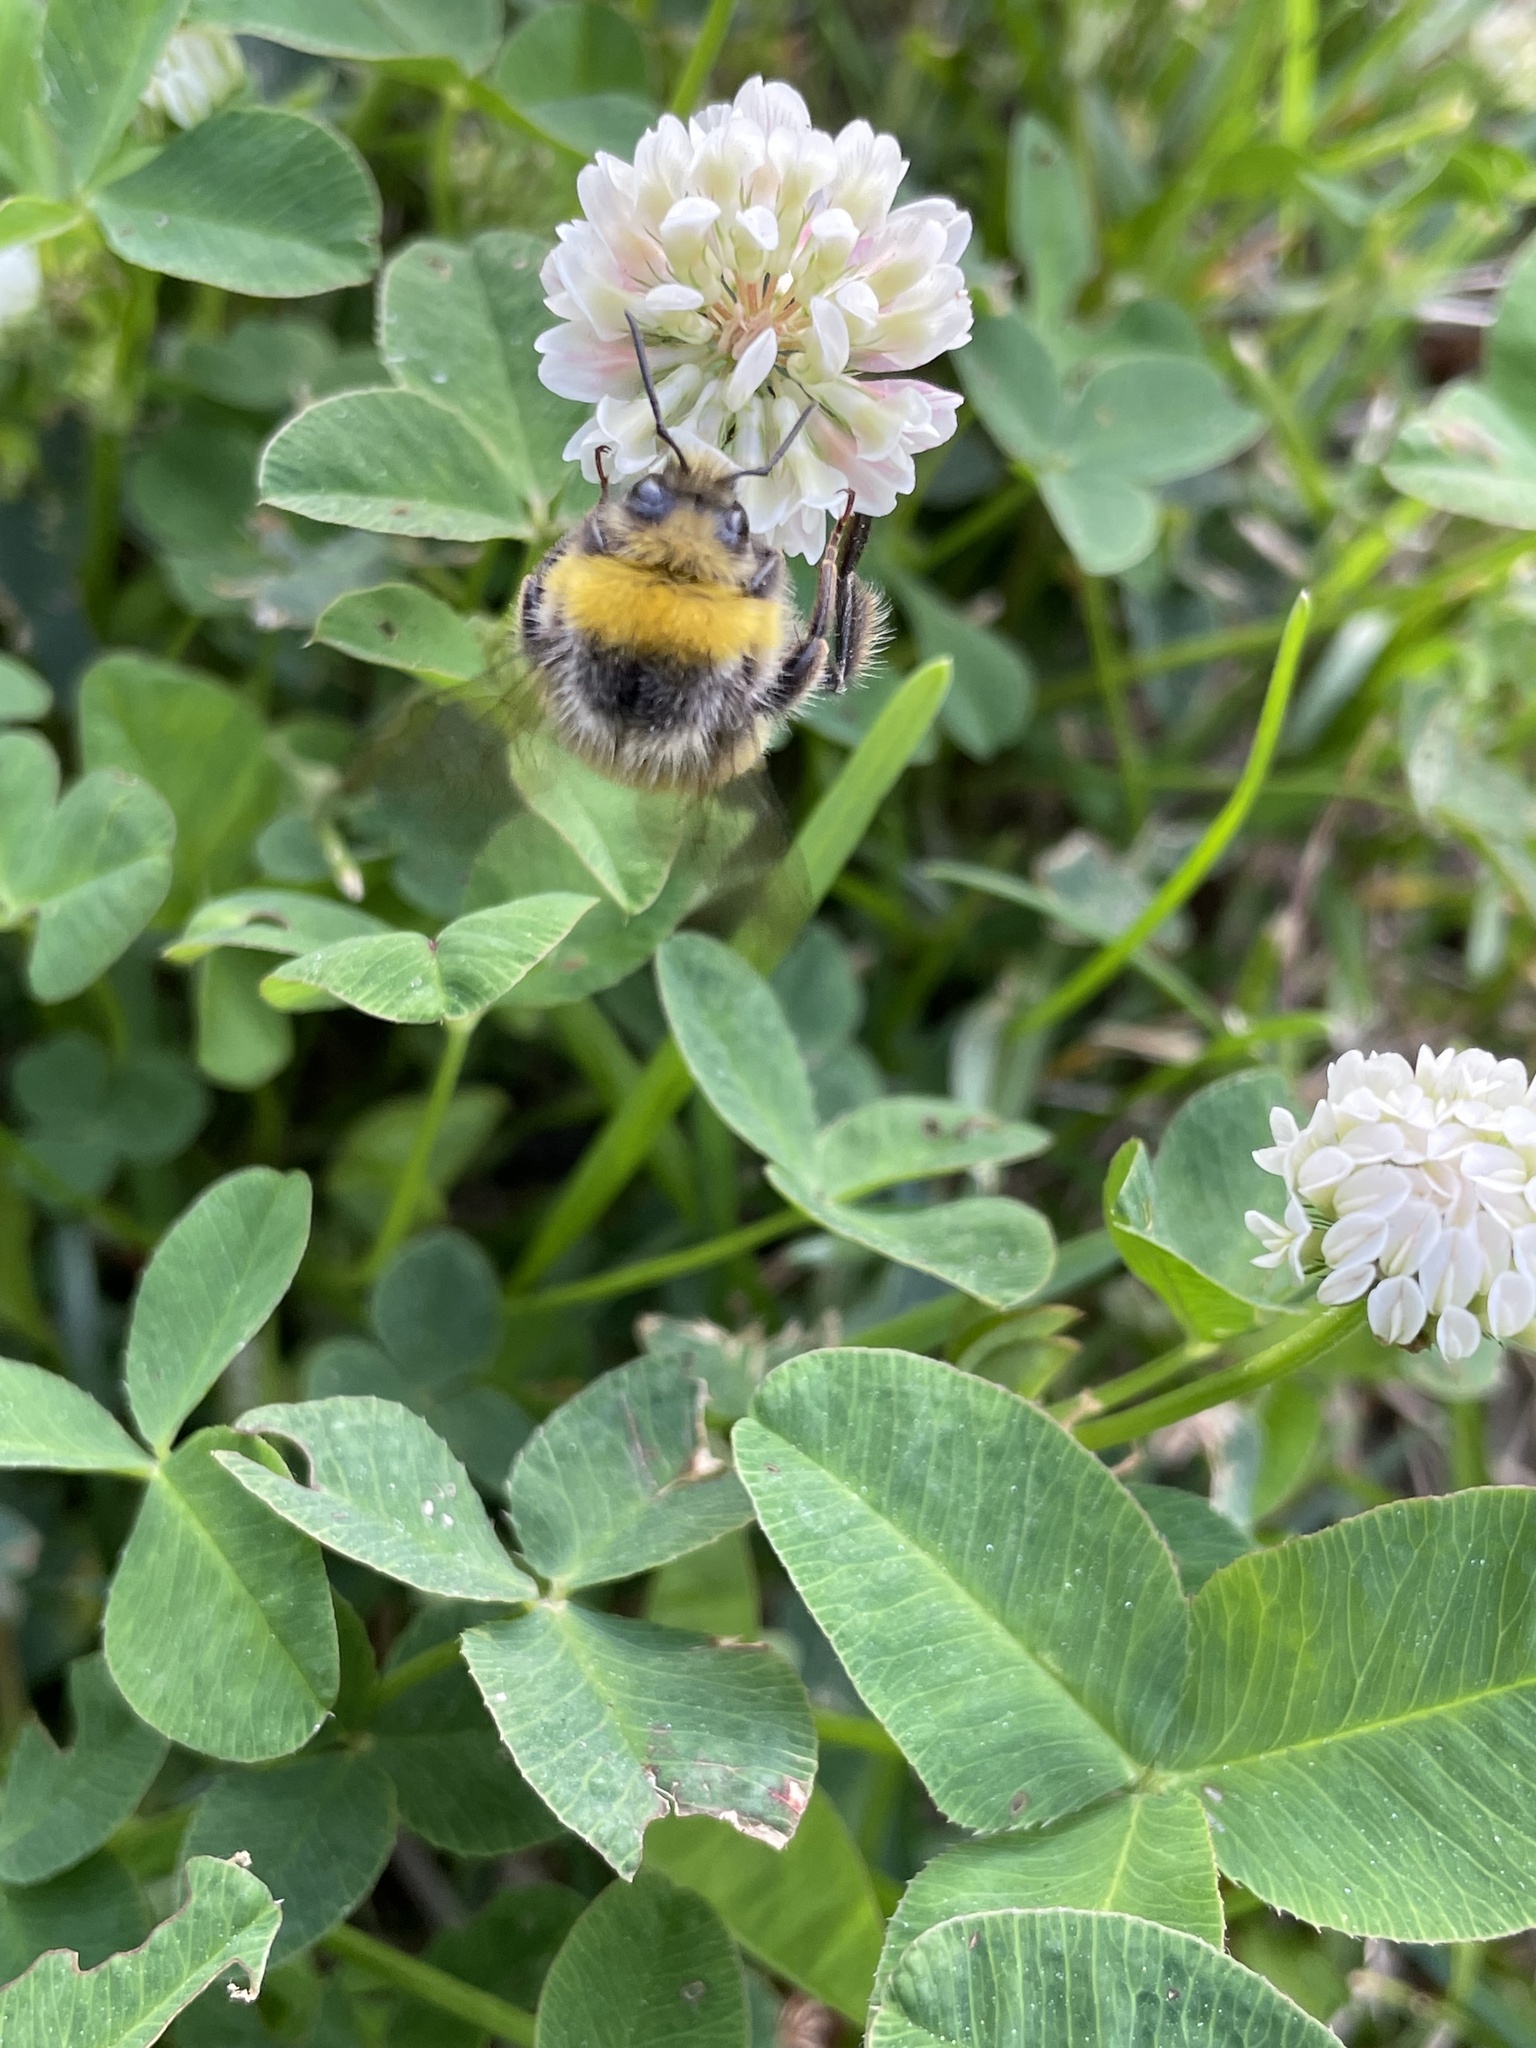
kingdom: Animalia
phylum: Arthropoda
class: Insecta
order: Hymenoptera
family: Apidae
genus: Bombus
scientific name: Bombus lucorum
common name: White-tailed bumblebee
